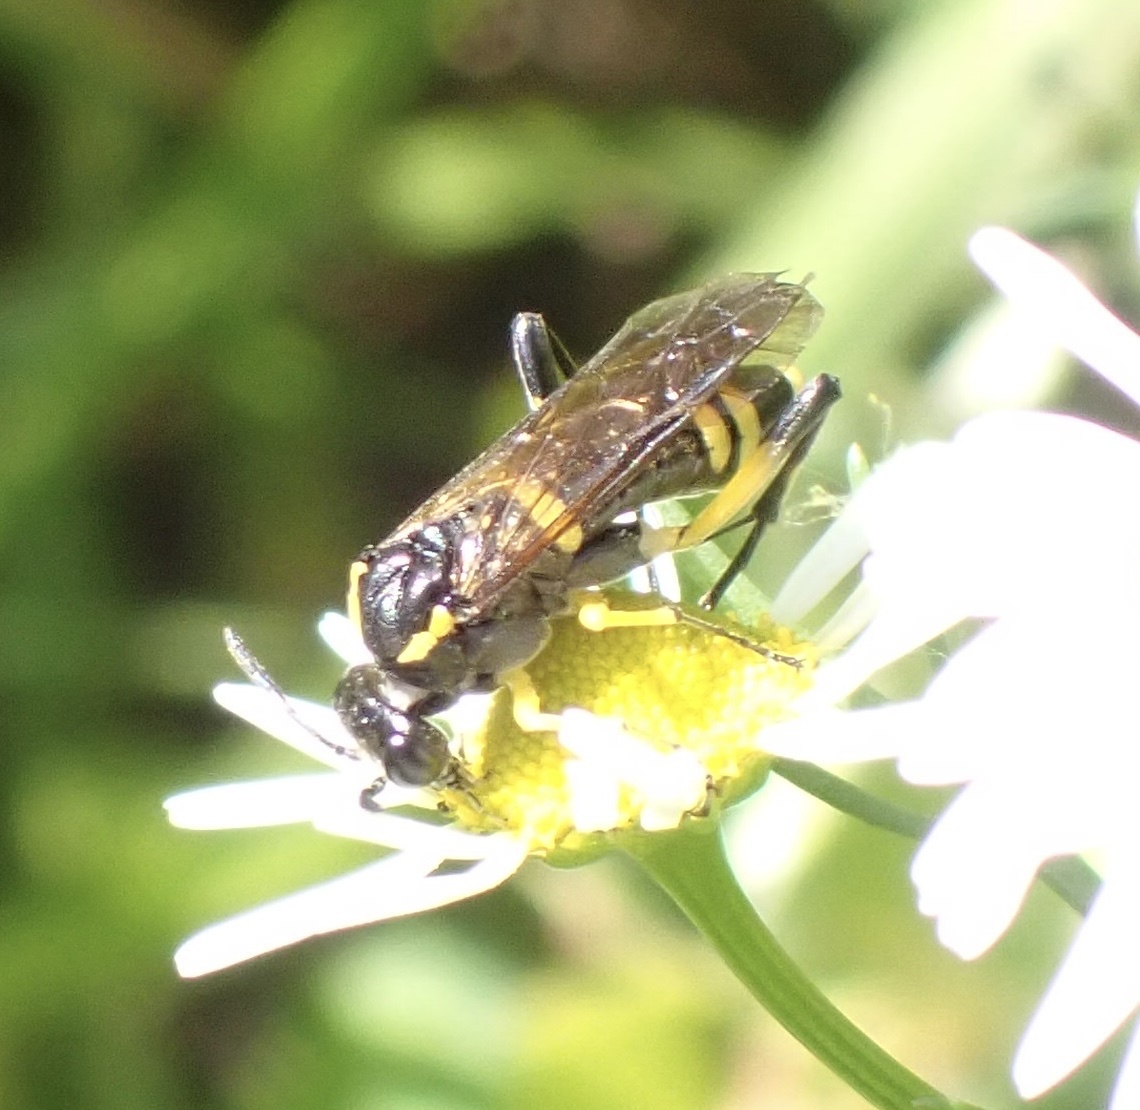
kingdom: Animalia
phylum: Arthropoda
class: Insecta
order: Hymenoptera
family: Tenthredinidae
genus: Macrophya
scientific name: Macrophya montana
